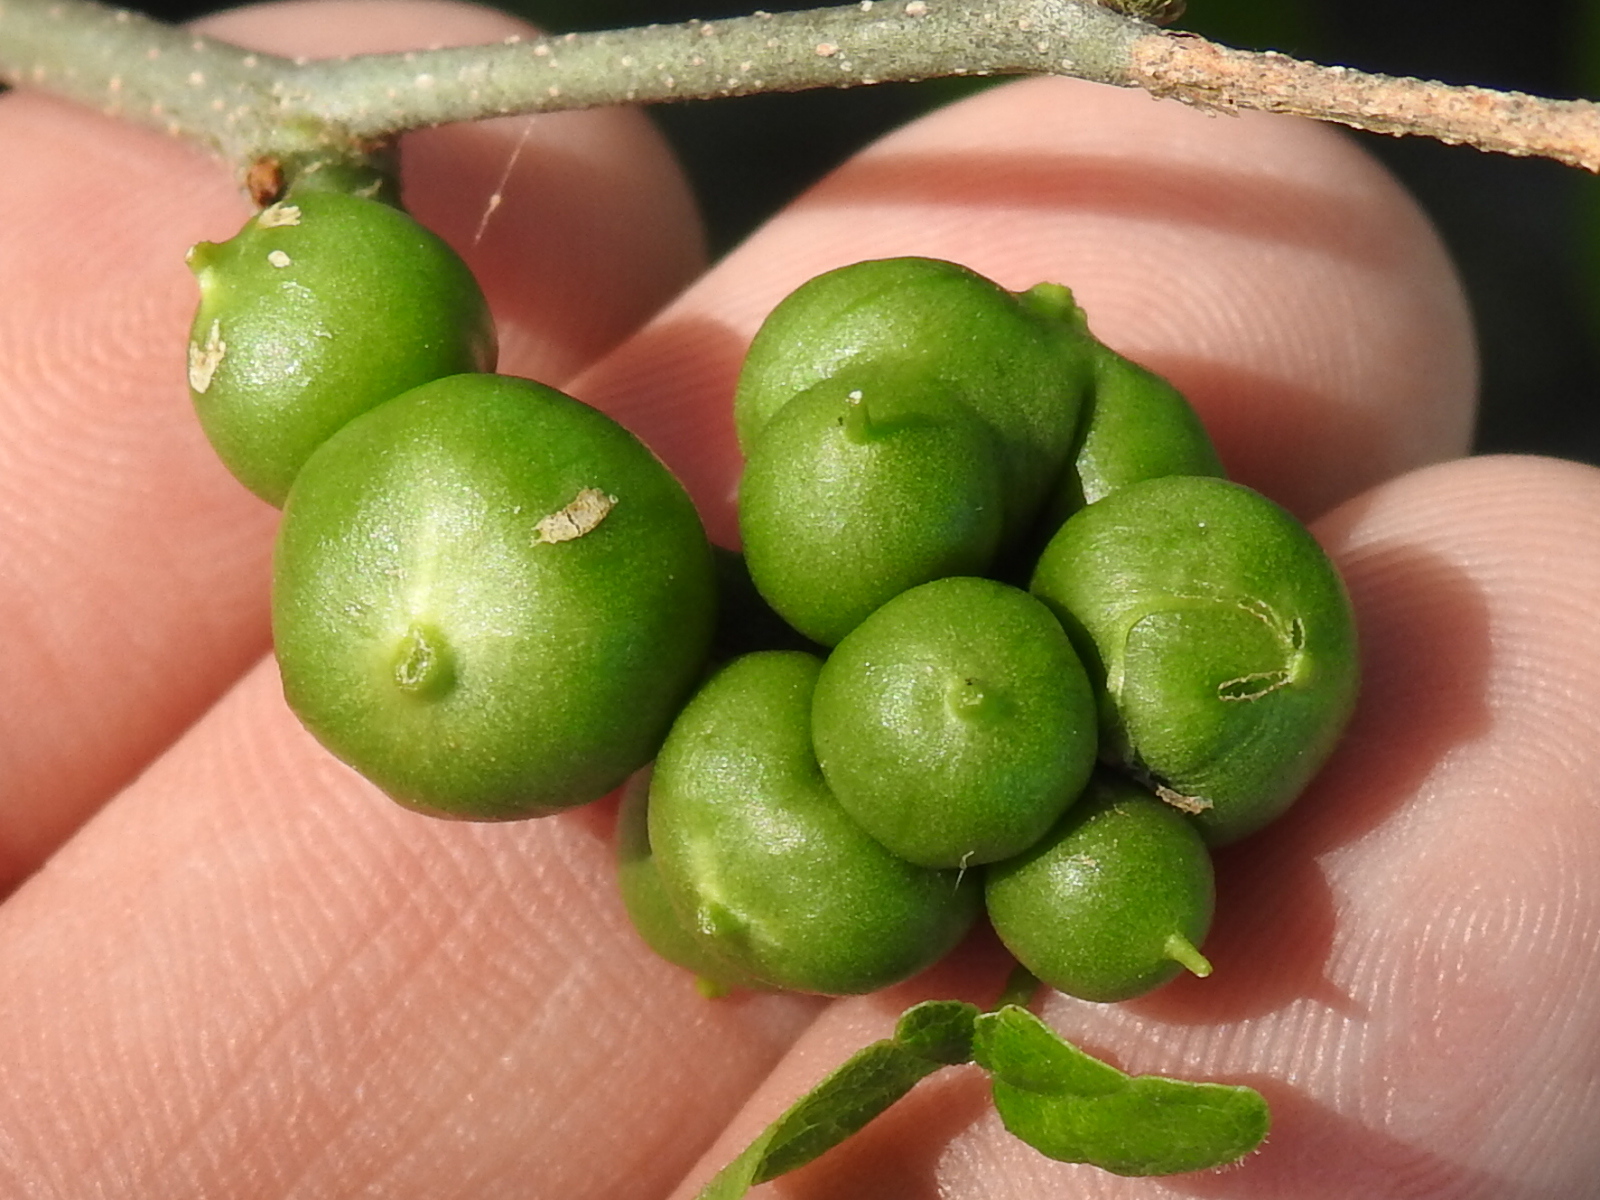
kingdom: Animalia
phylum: Arthropoda
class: Insecta
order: Diptera
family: Cecidomyiidae
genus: Celticecis
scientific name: Celticecis connata
